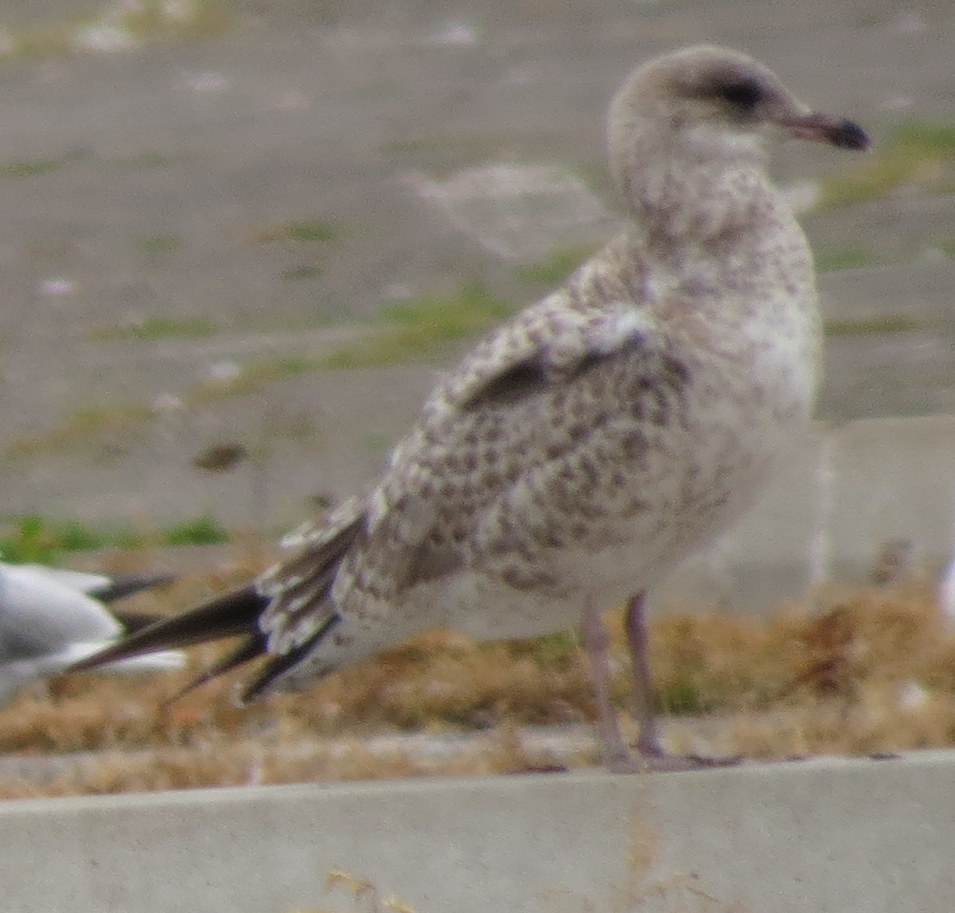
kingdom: Animalia
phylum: Chordata
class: Aves
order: Charadriiformes
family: Laridae
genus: Larus
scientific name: Larus delawarensis
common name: Ring-billed gull
